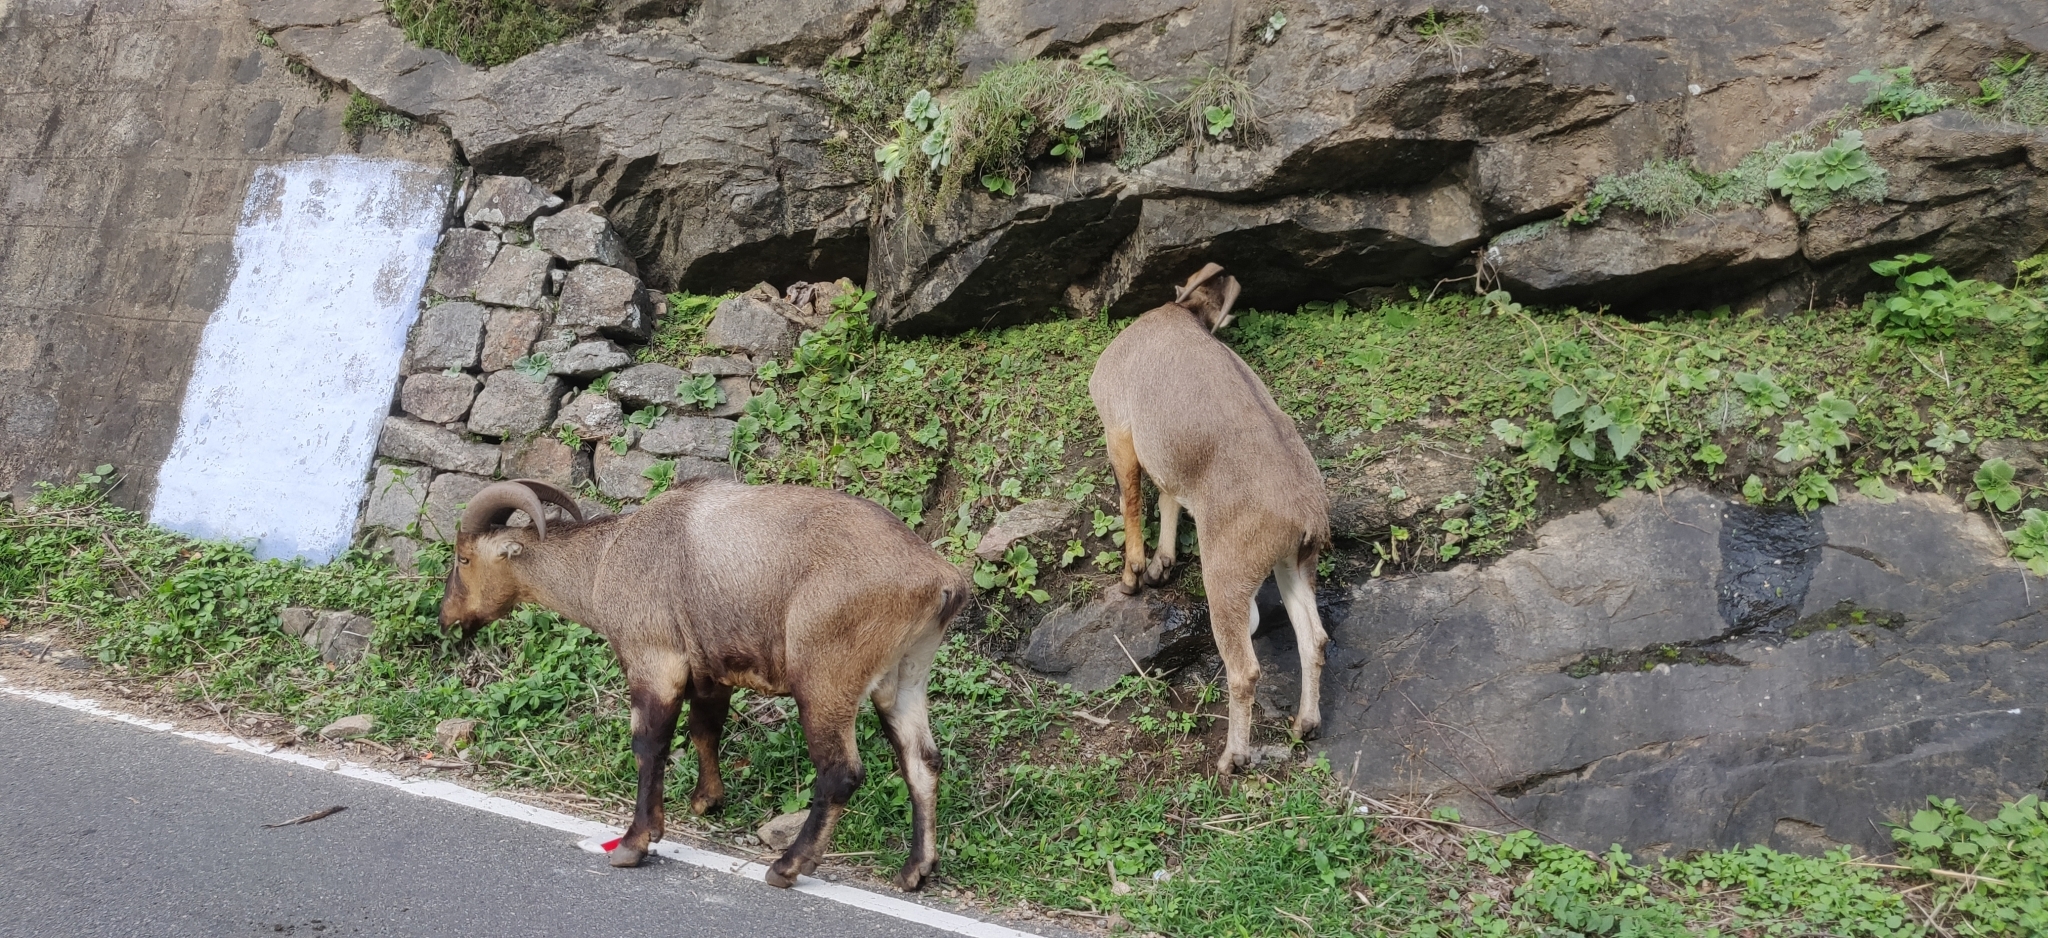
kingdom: Animalia
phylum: Chordata
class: Mammalia
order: Artiodactyla
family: Bovidae
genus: Hemitragus
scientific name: Hemitragus hylocrius
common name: Nilgiri tahr
